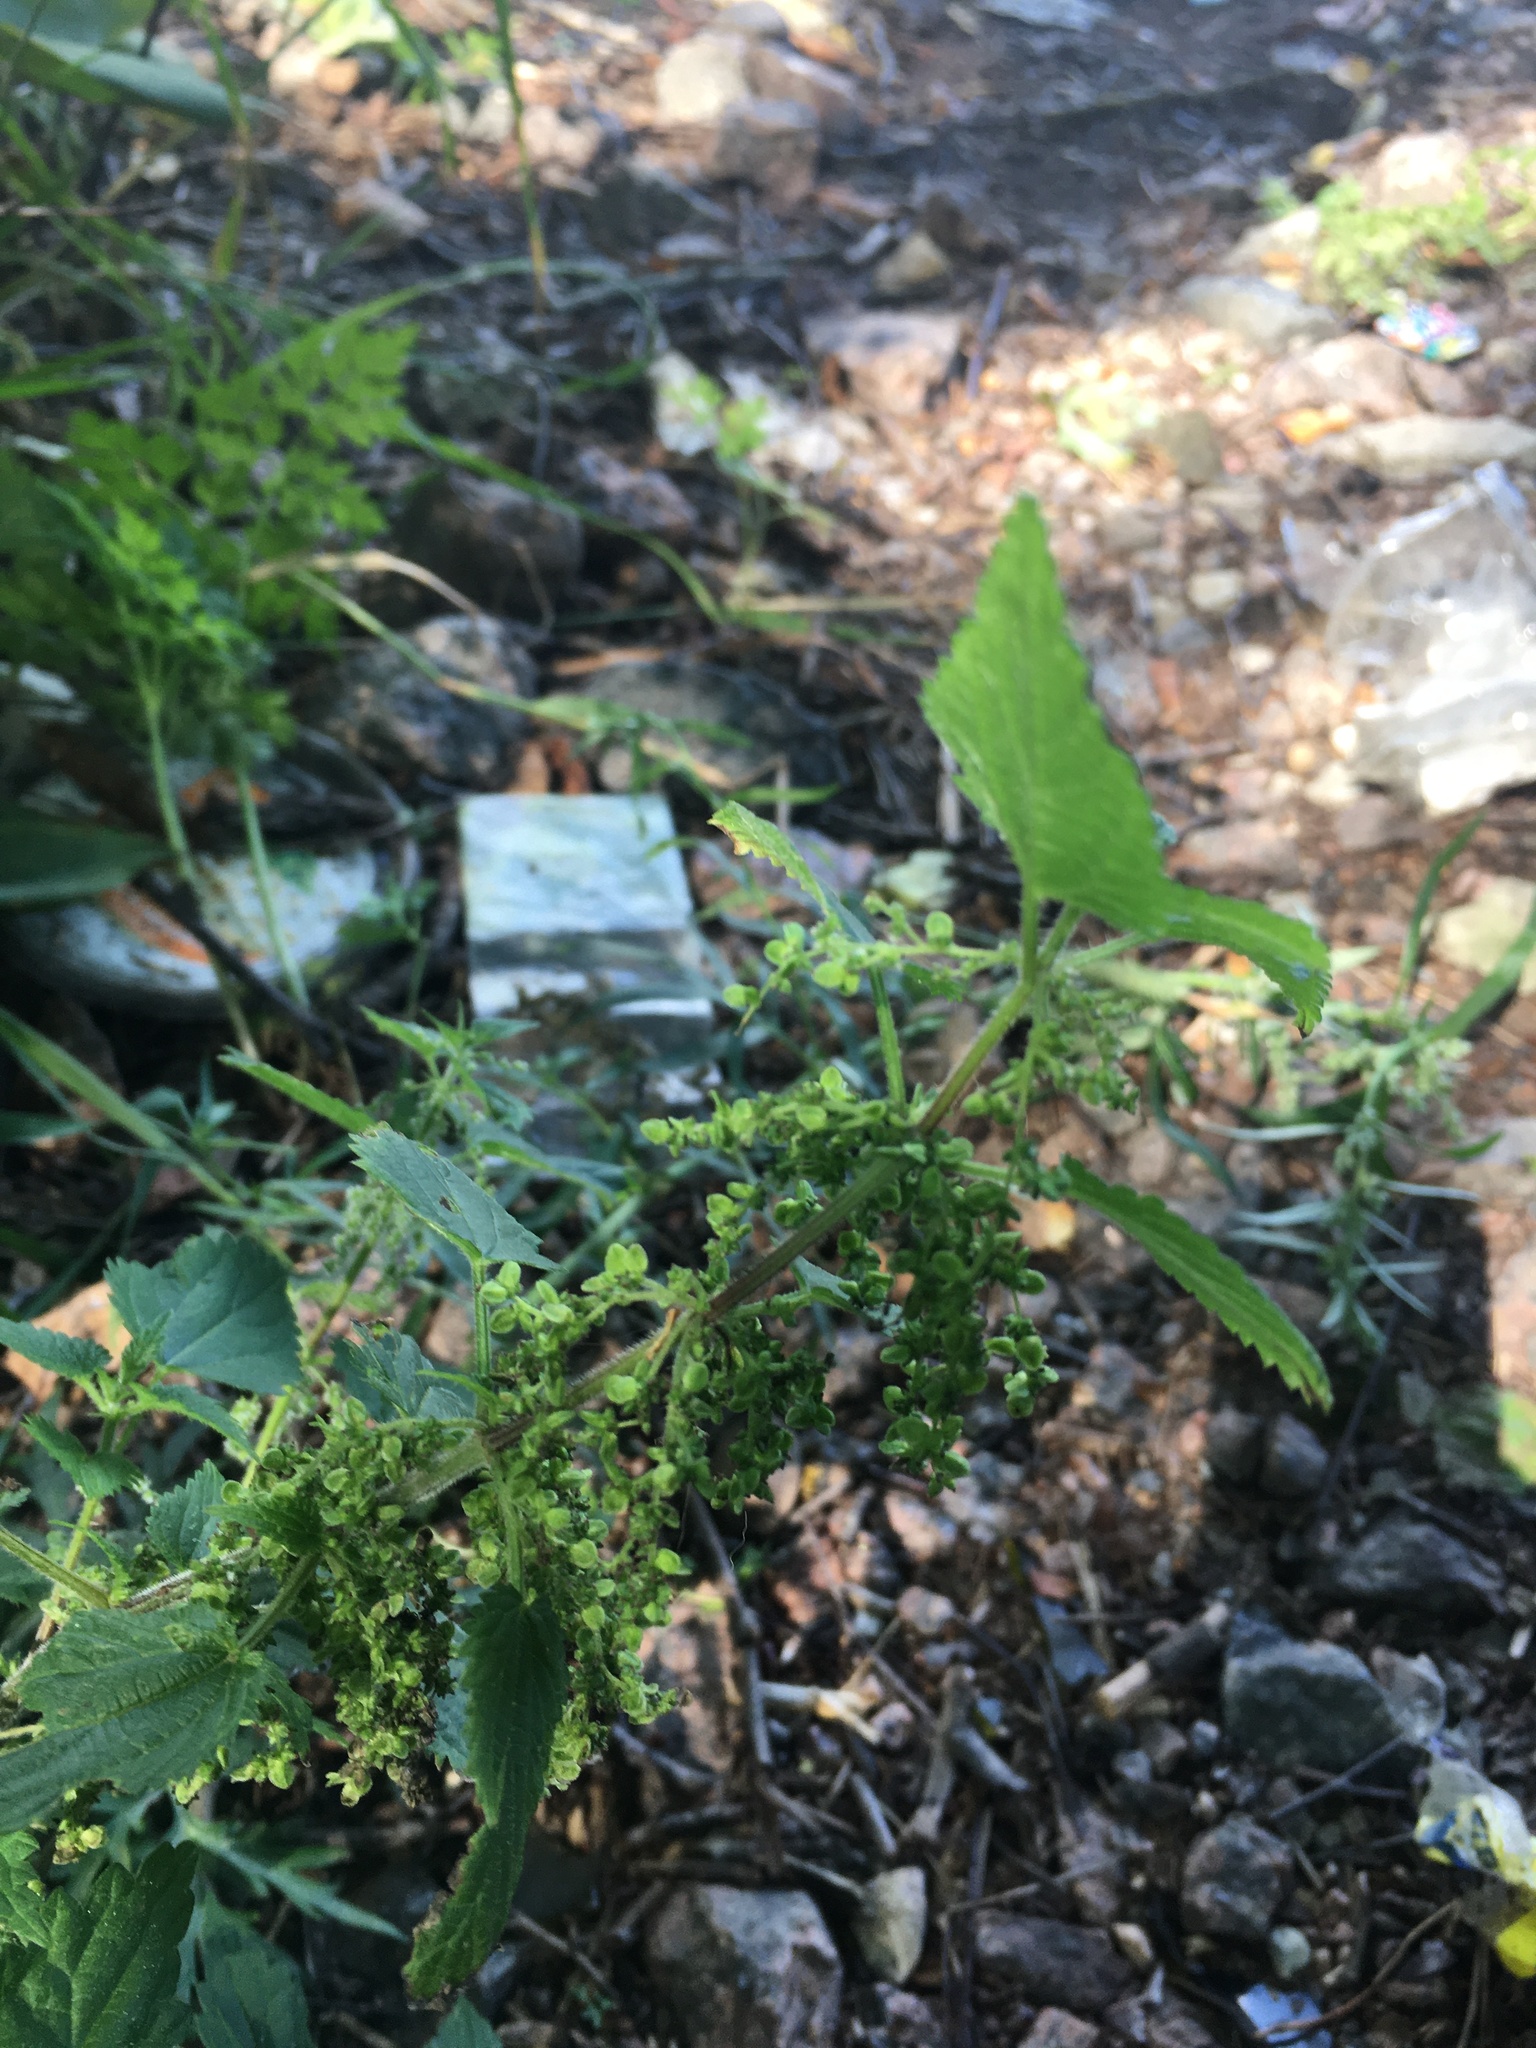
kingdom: Plantae
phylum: Tracheophyta
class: Magnoliopsida
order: Rosales
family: Urticaceae
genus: Urtica
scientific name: Urtica dioica
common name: Common nettle
